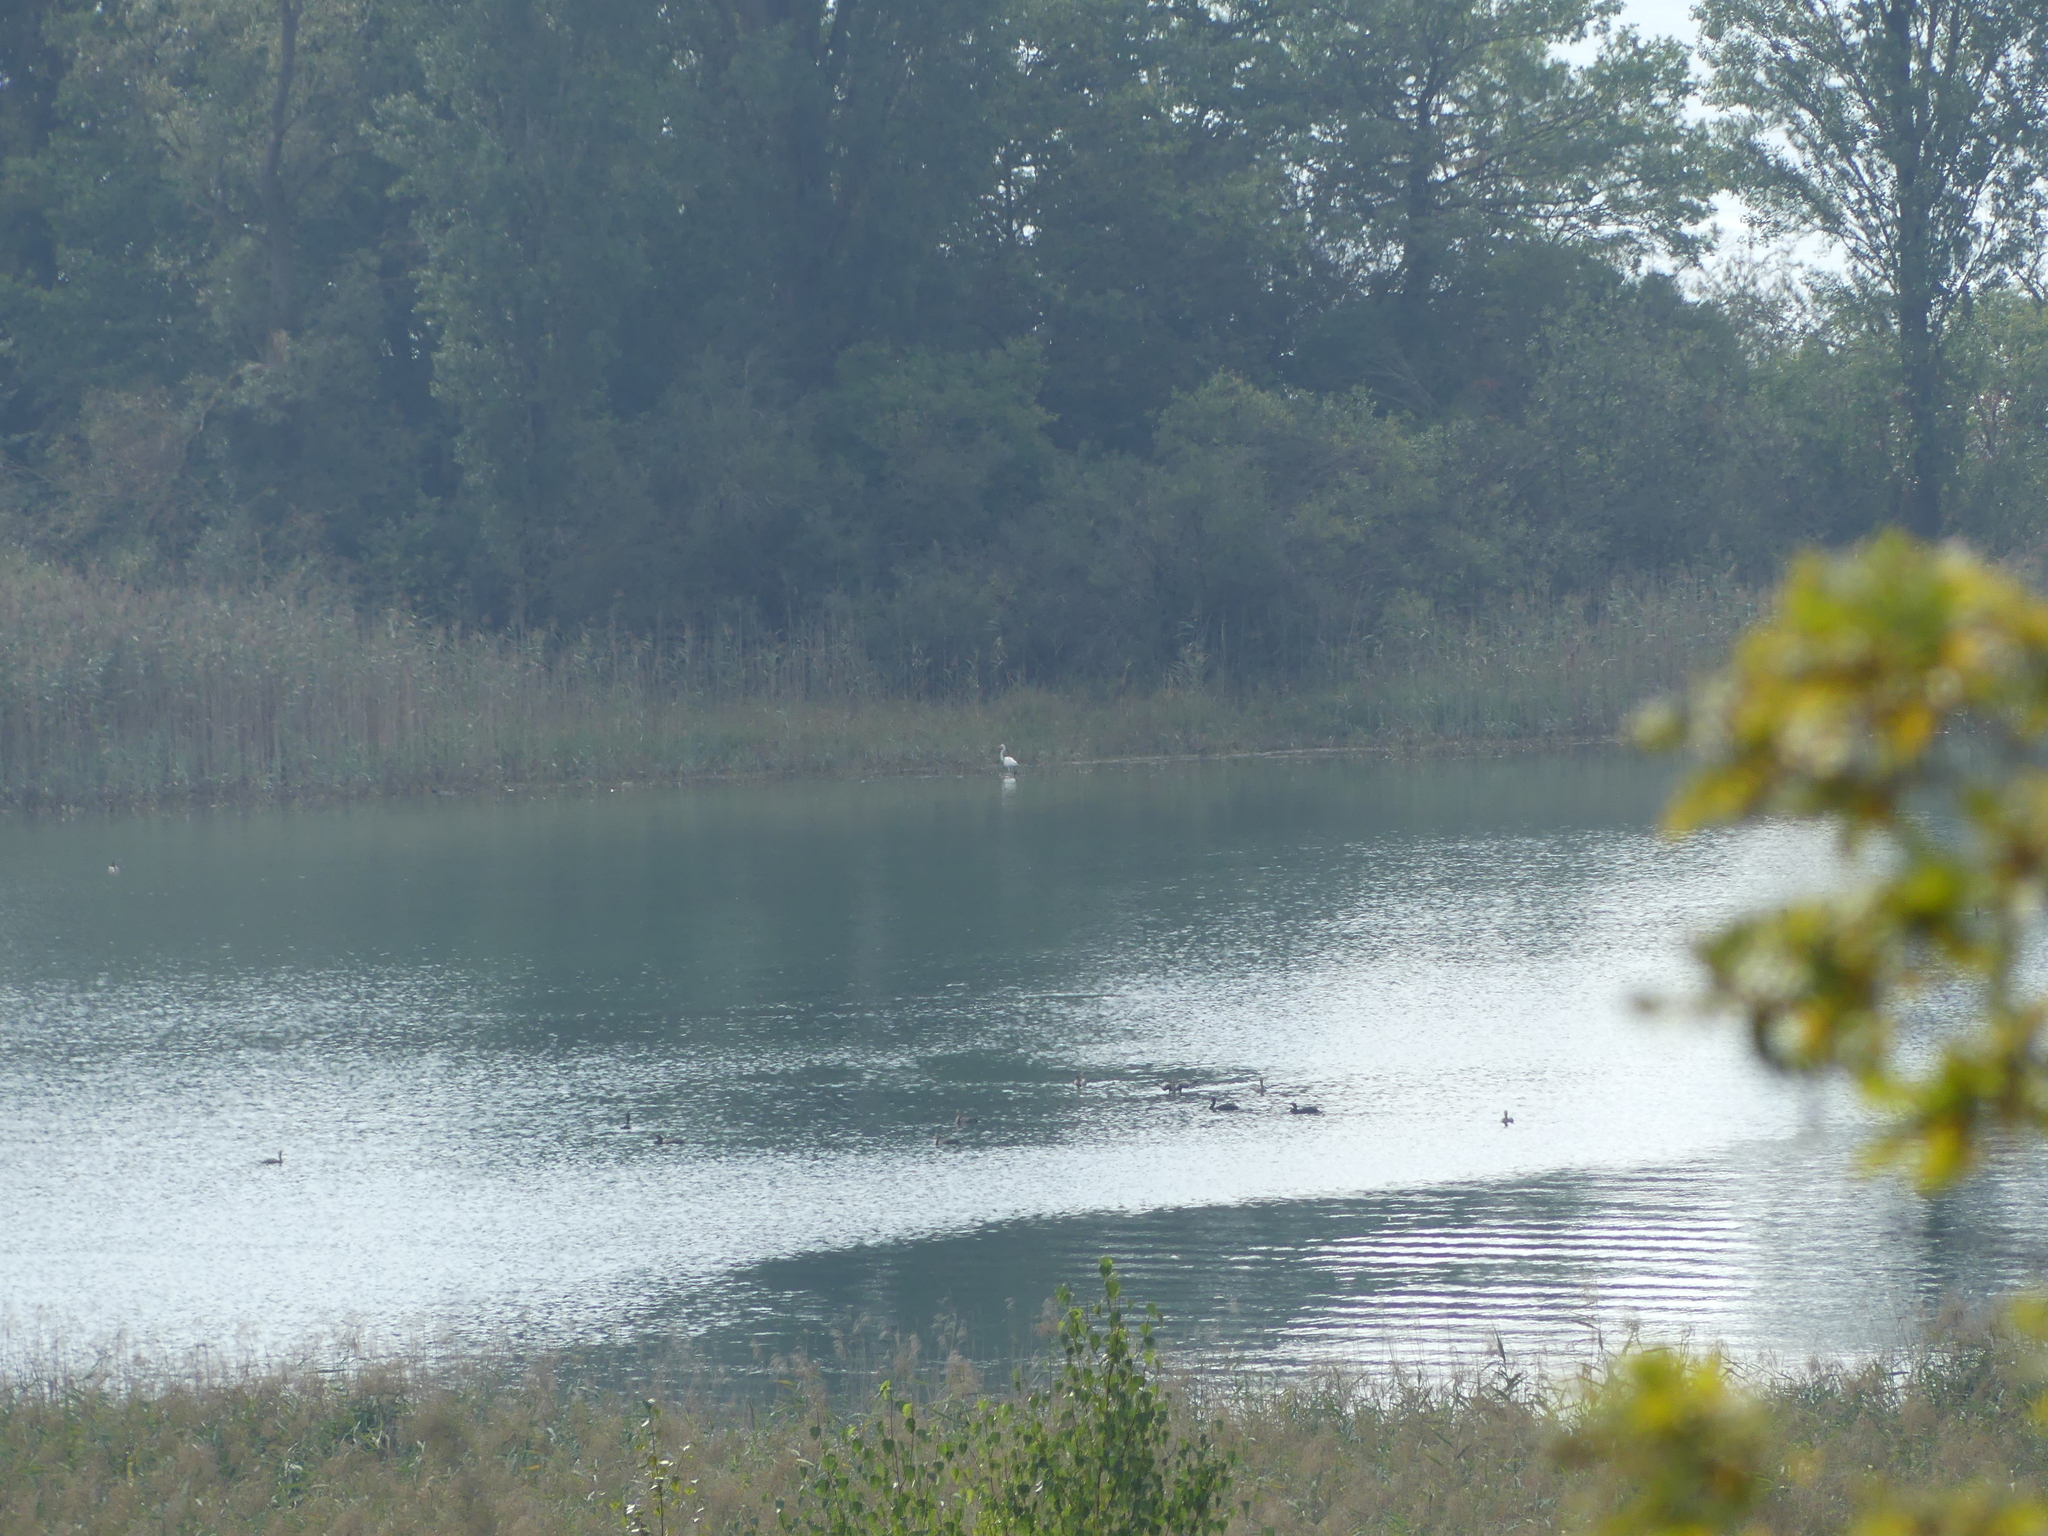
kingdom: Animalia
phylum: Chordata
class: Aves
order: Pelecaniformes
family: Ardeidae
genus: Ardea
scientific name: Ardea alba
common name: Great egret
